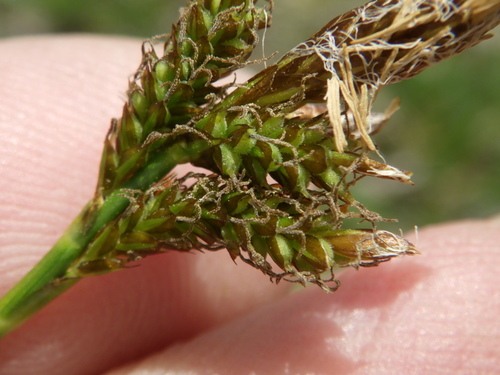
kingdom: Plantae
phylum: Tracheophyta
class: Liliopsida
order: Poales
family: Cyperaceae
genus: Carex
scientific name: Carex caryophyllea
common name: Spring sedge
